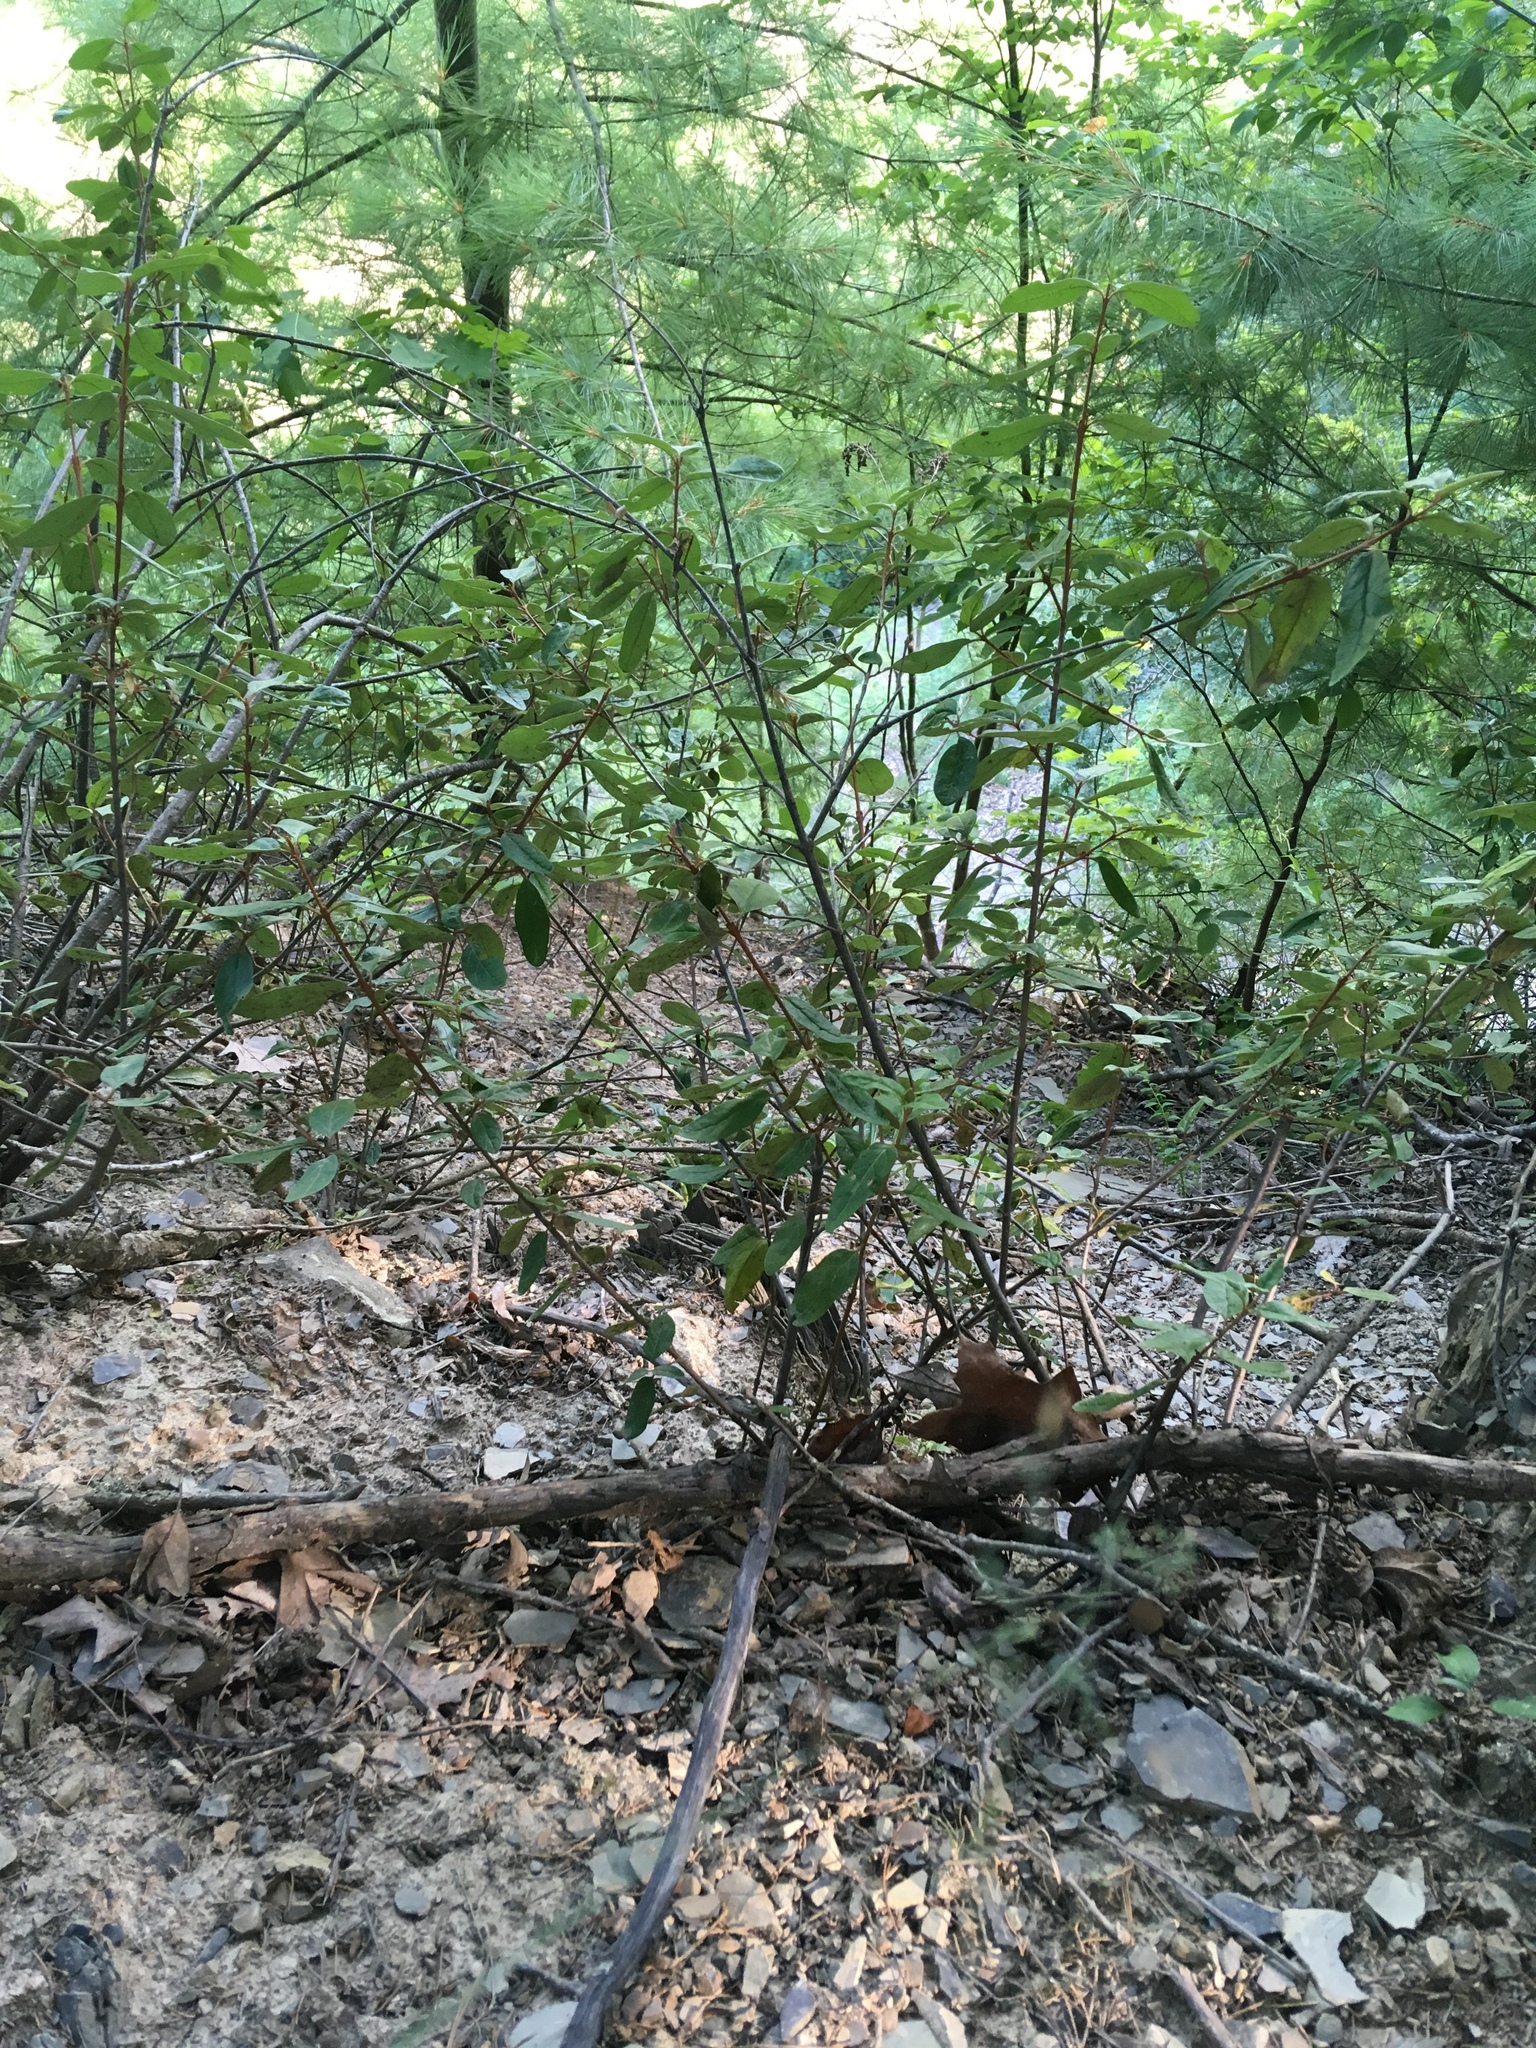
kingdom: Plantae
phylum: Tracheophyta
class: Magnoliopsida
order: Rosales
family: Elaeagnaceae
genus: Shepherdia
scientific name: Shepherdia canadensis
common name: Soapberry
